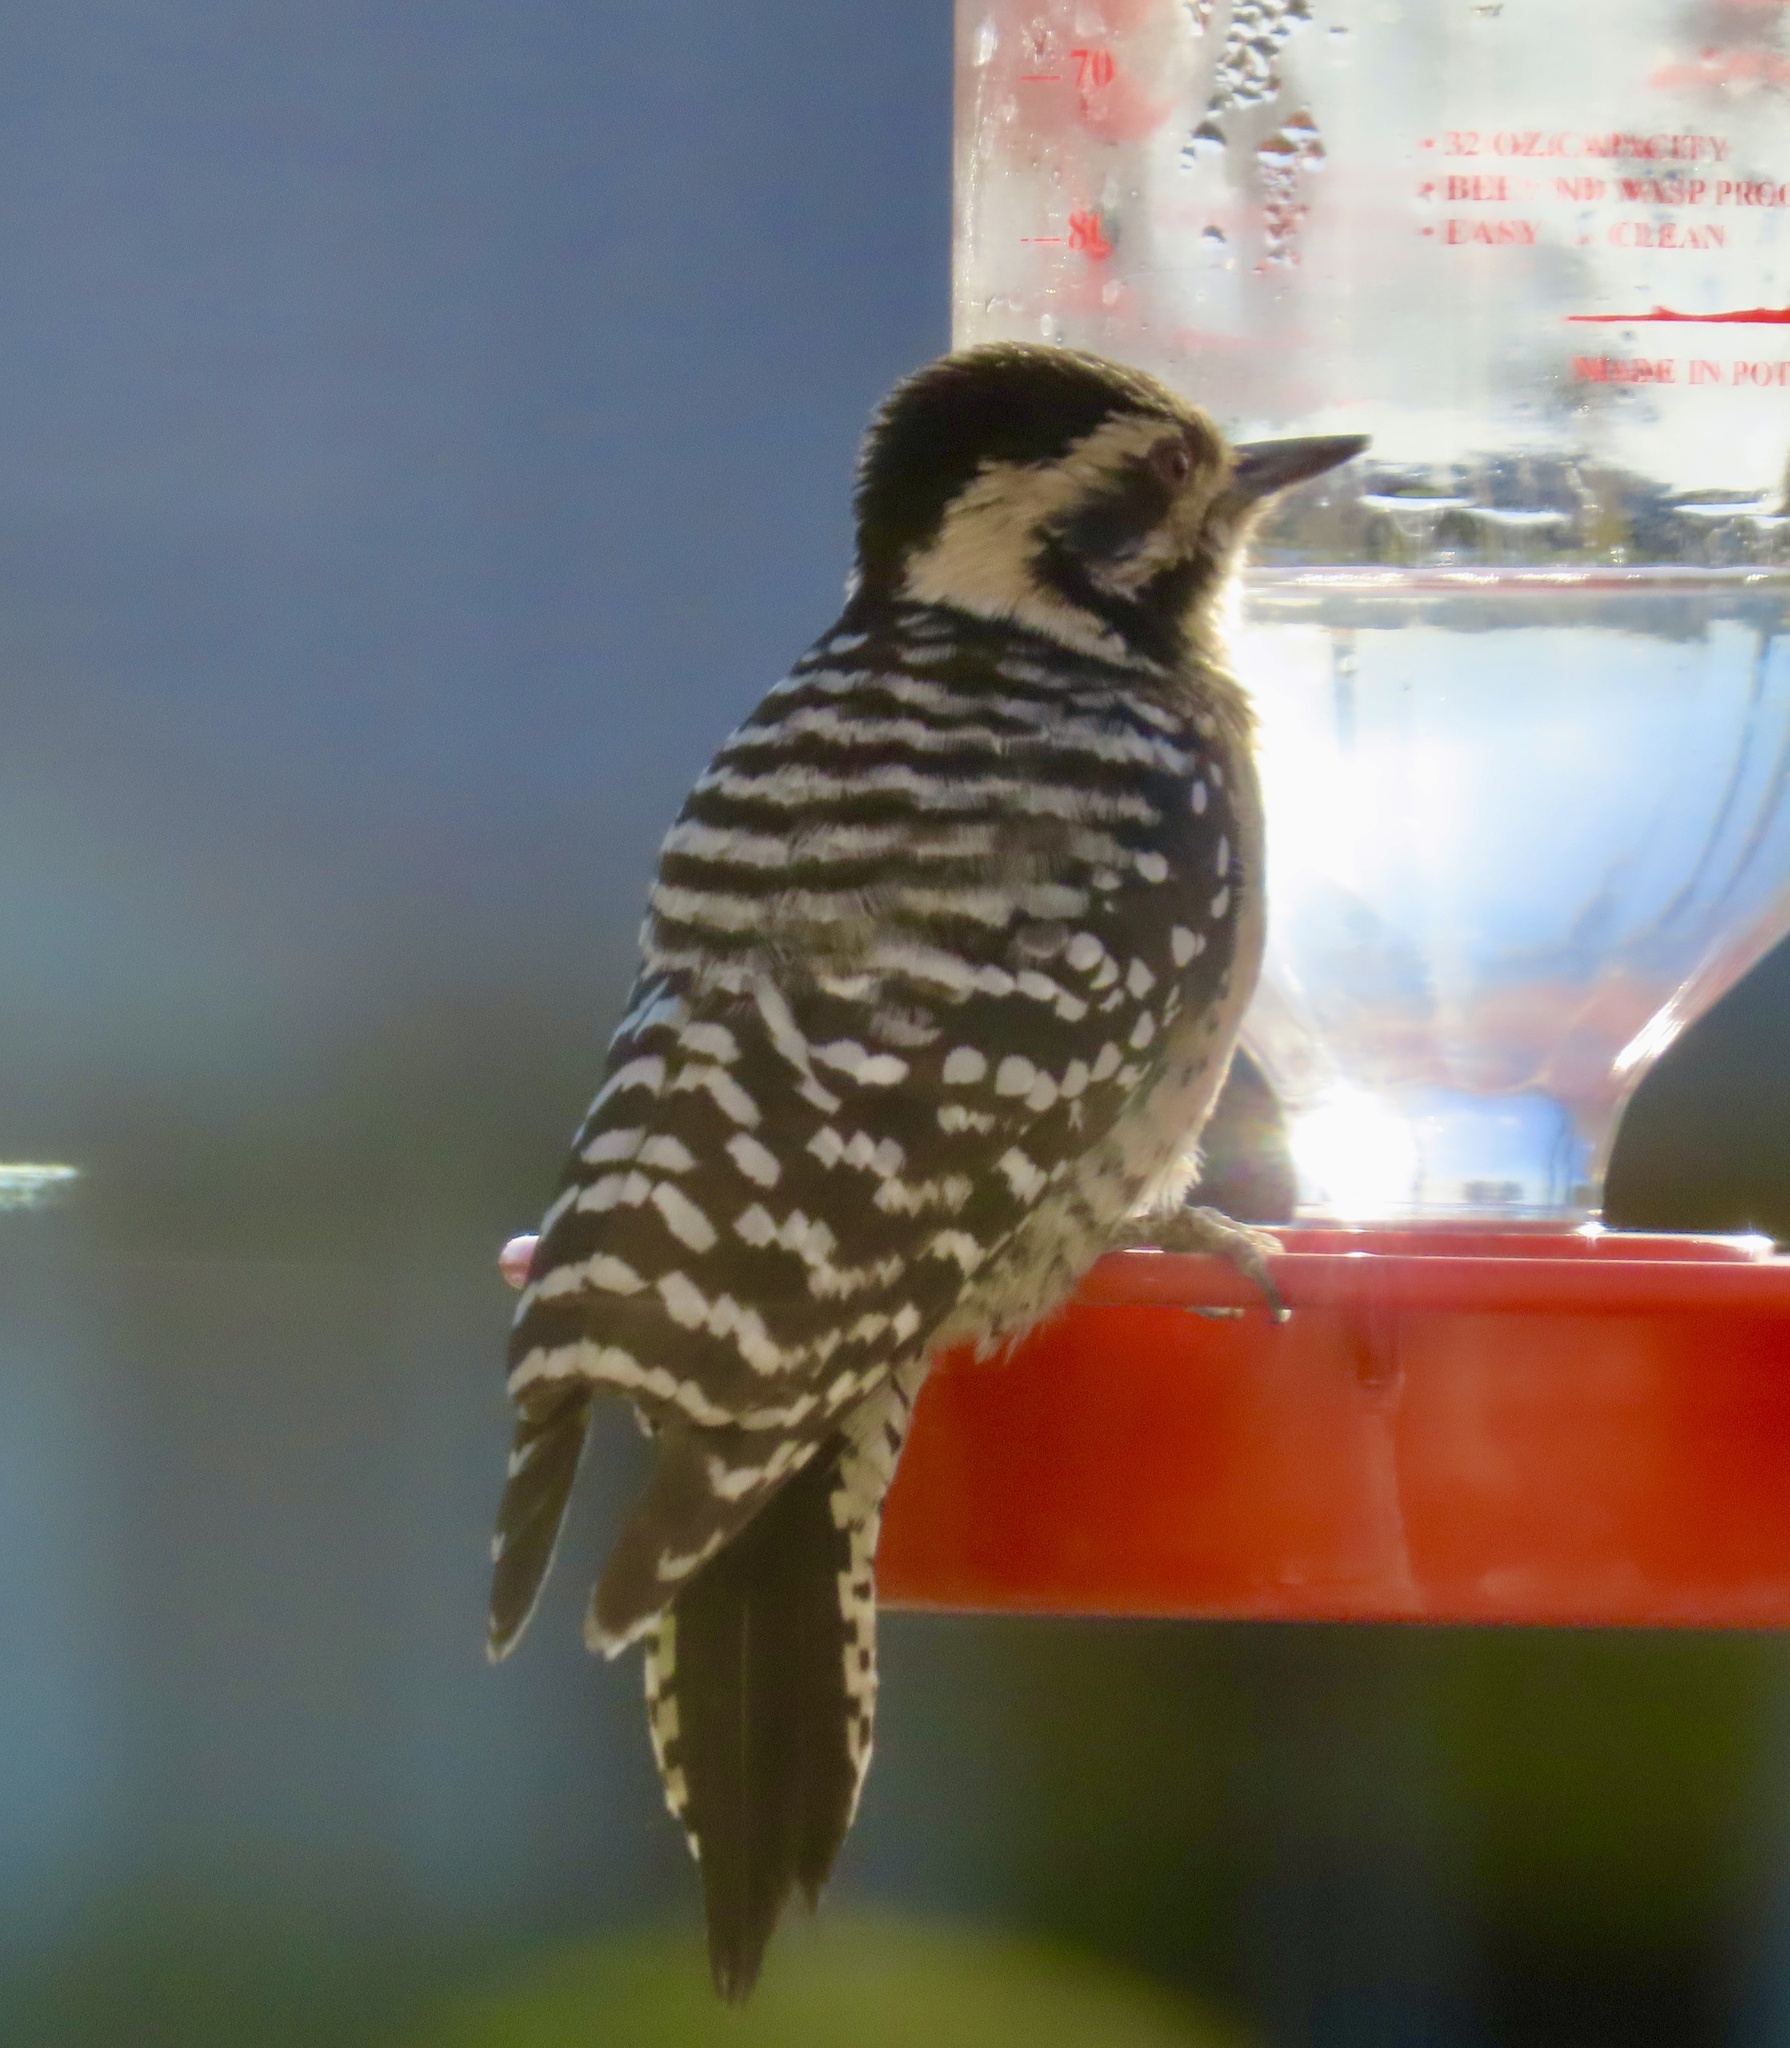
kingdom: Animalia
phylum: Chordata
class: Aves
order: Piciformes
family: Picidae
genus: Dryobates
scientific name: Dryobates scalaris
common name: Ladder-backed woodpecker
